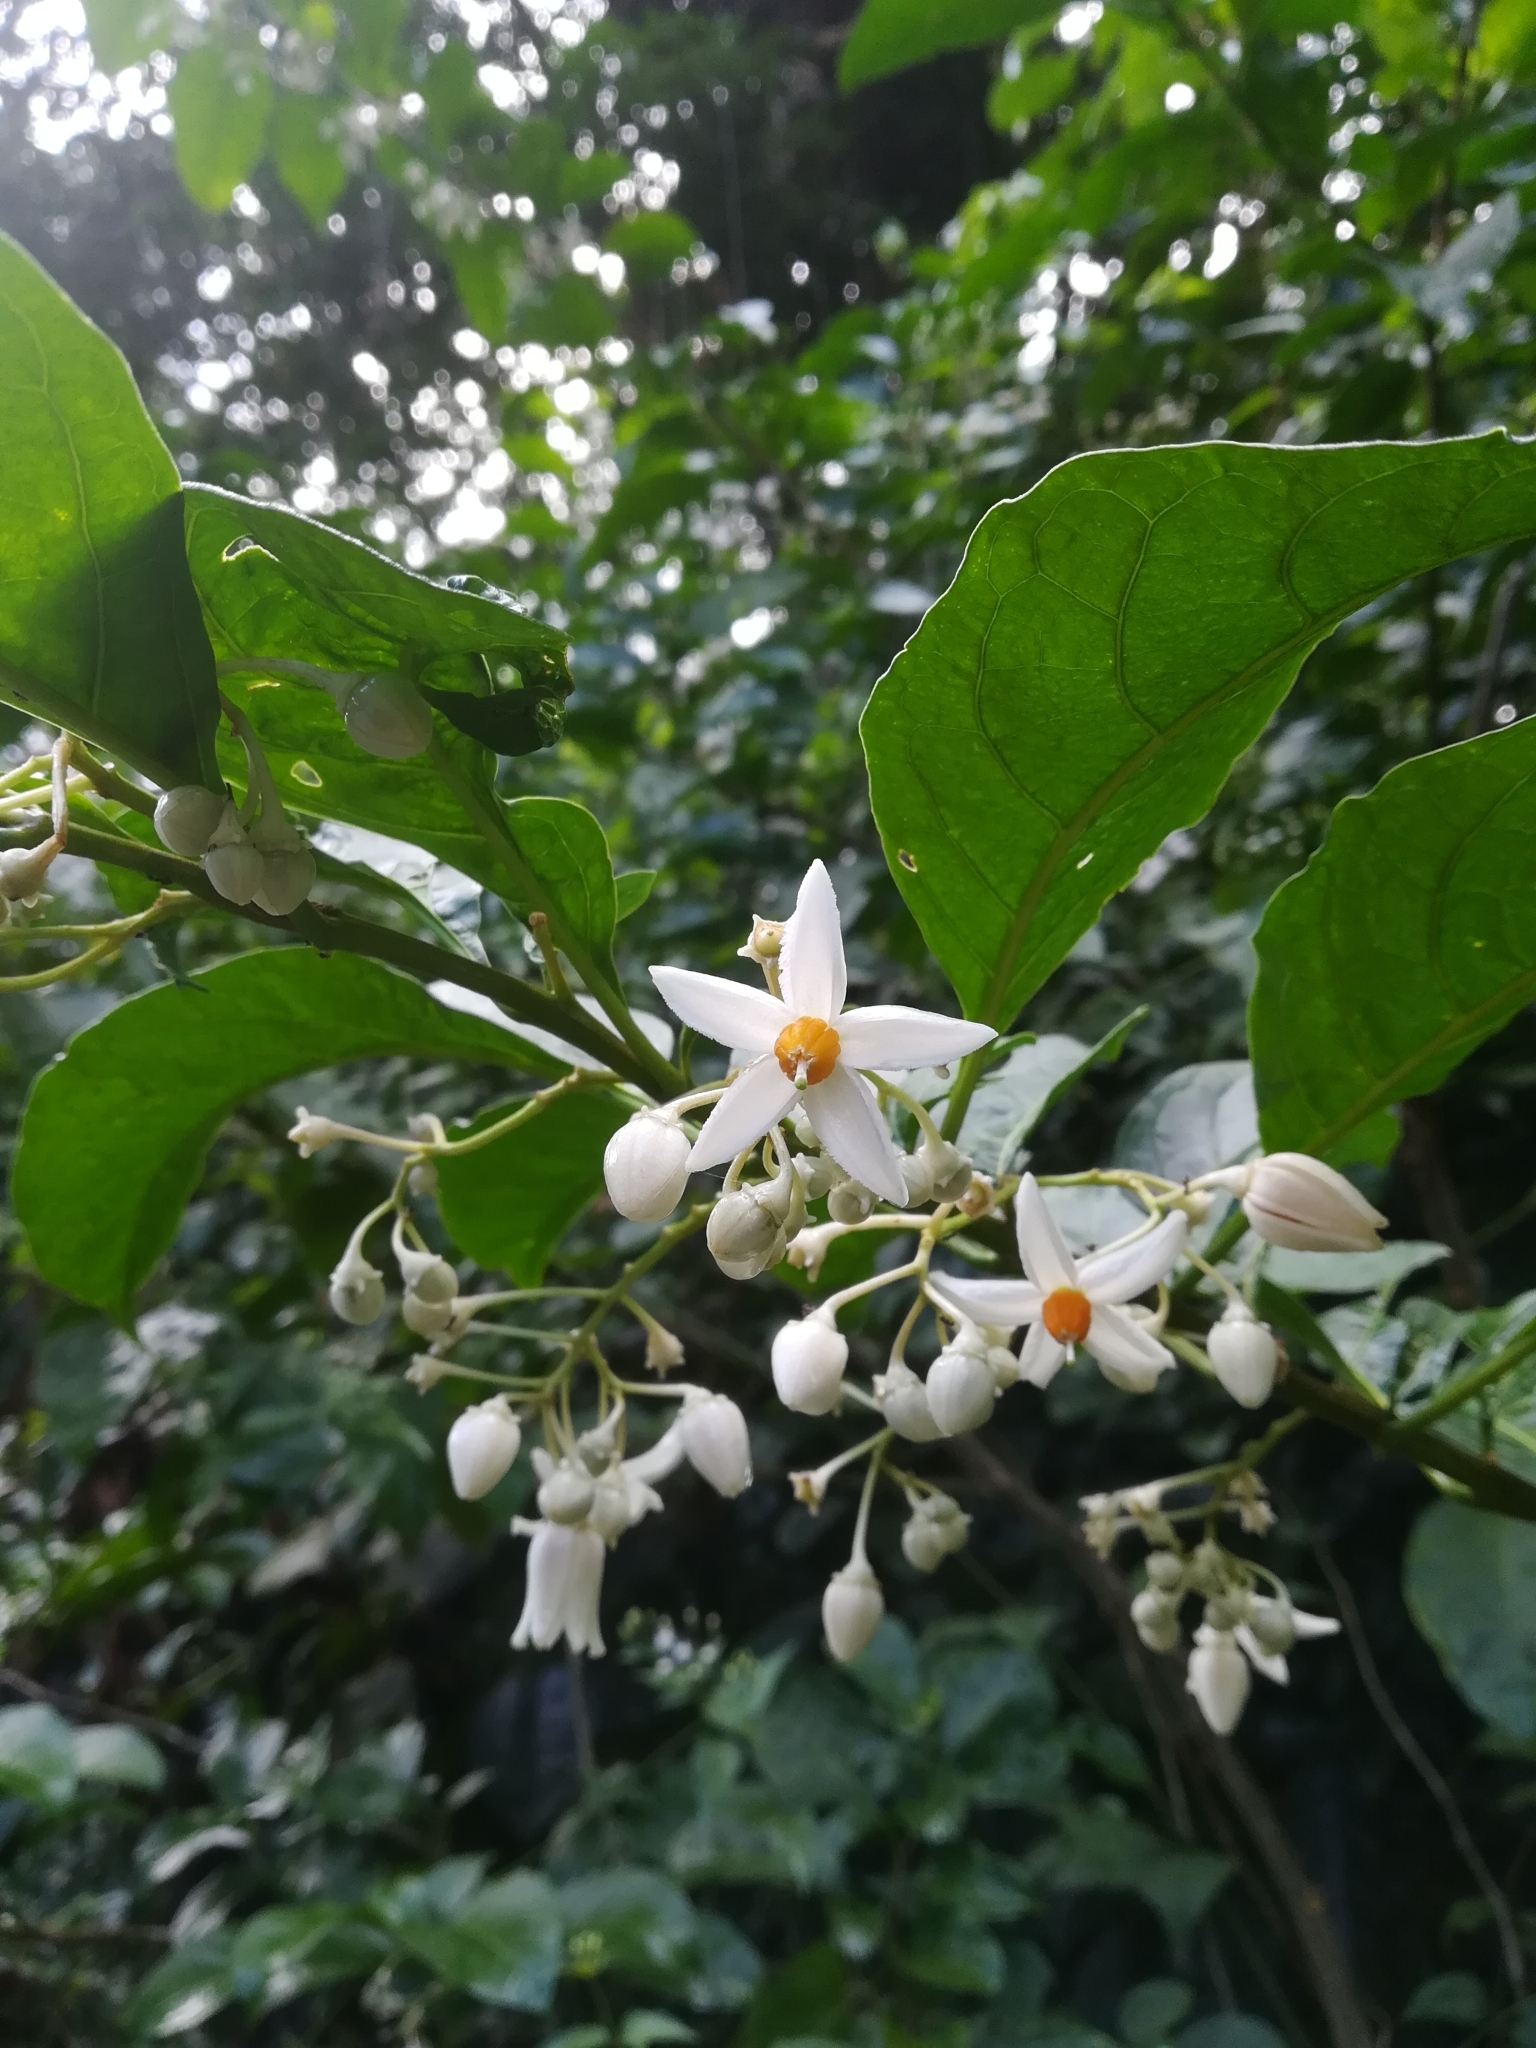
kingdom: Plantae
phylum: Tracheophyta
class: Magnoliopsida
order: Solanales
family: Solanaceae
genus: Solanum
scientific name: Solanum leucocarpon
